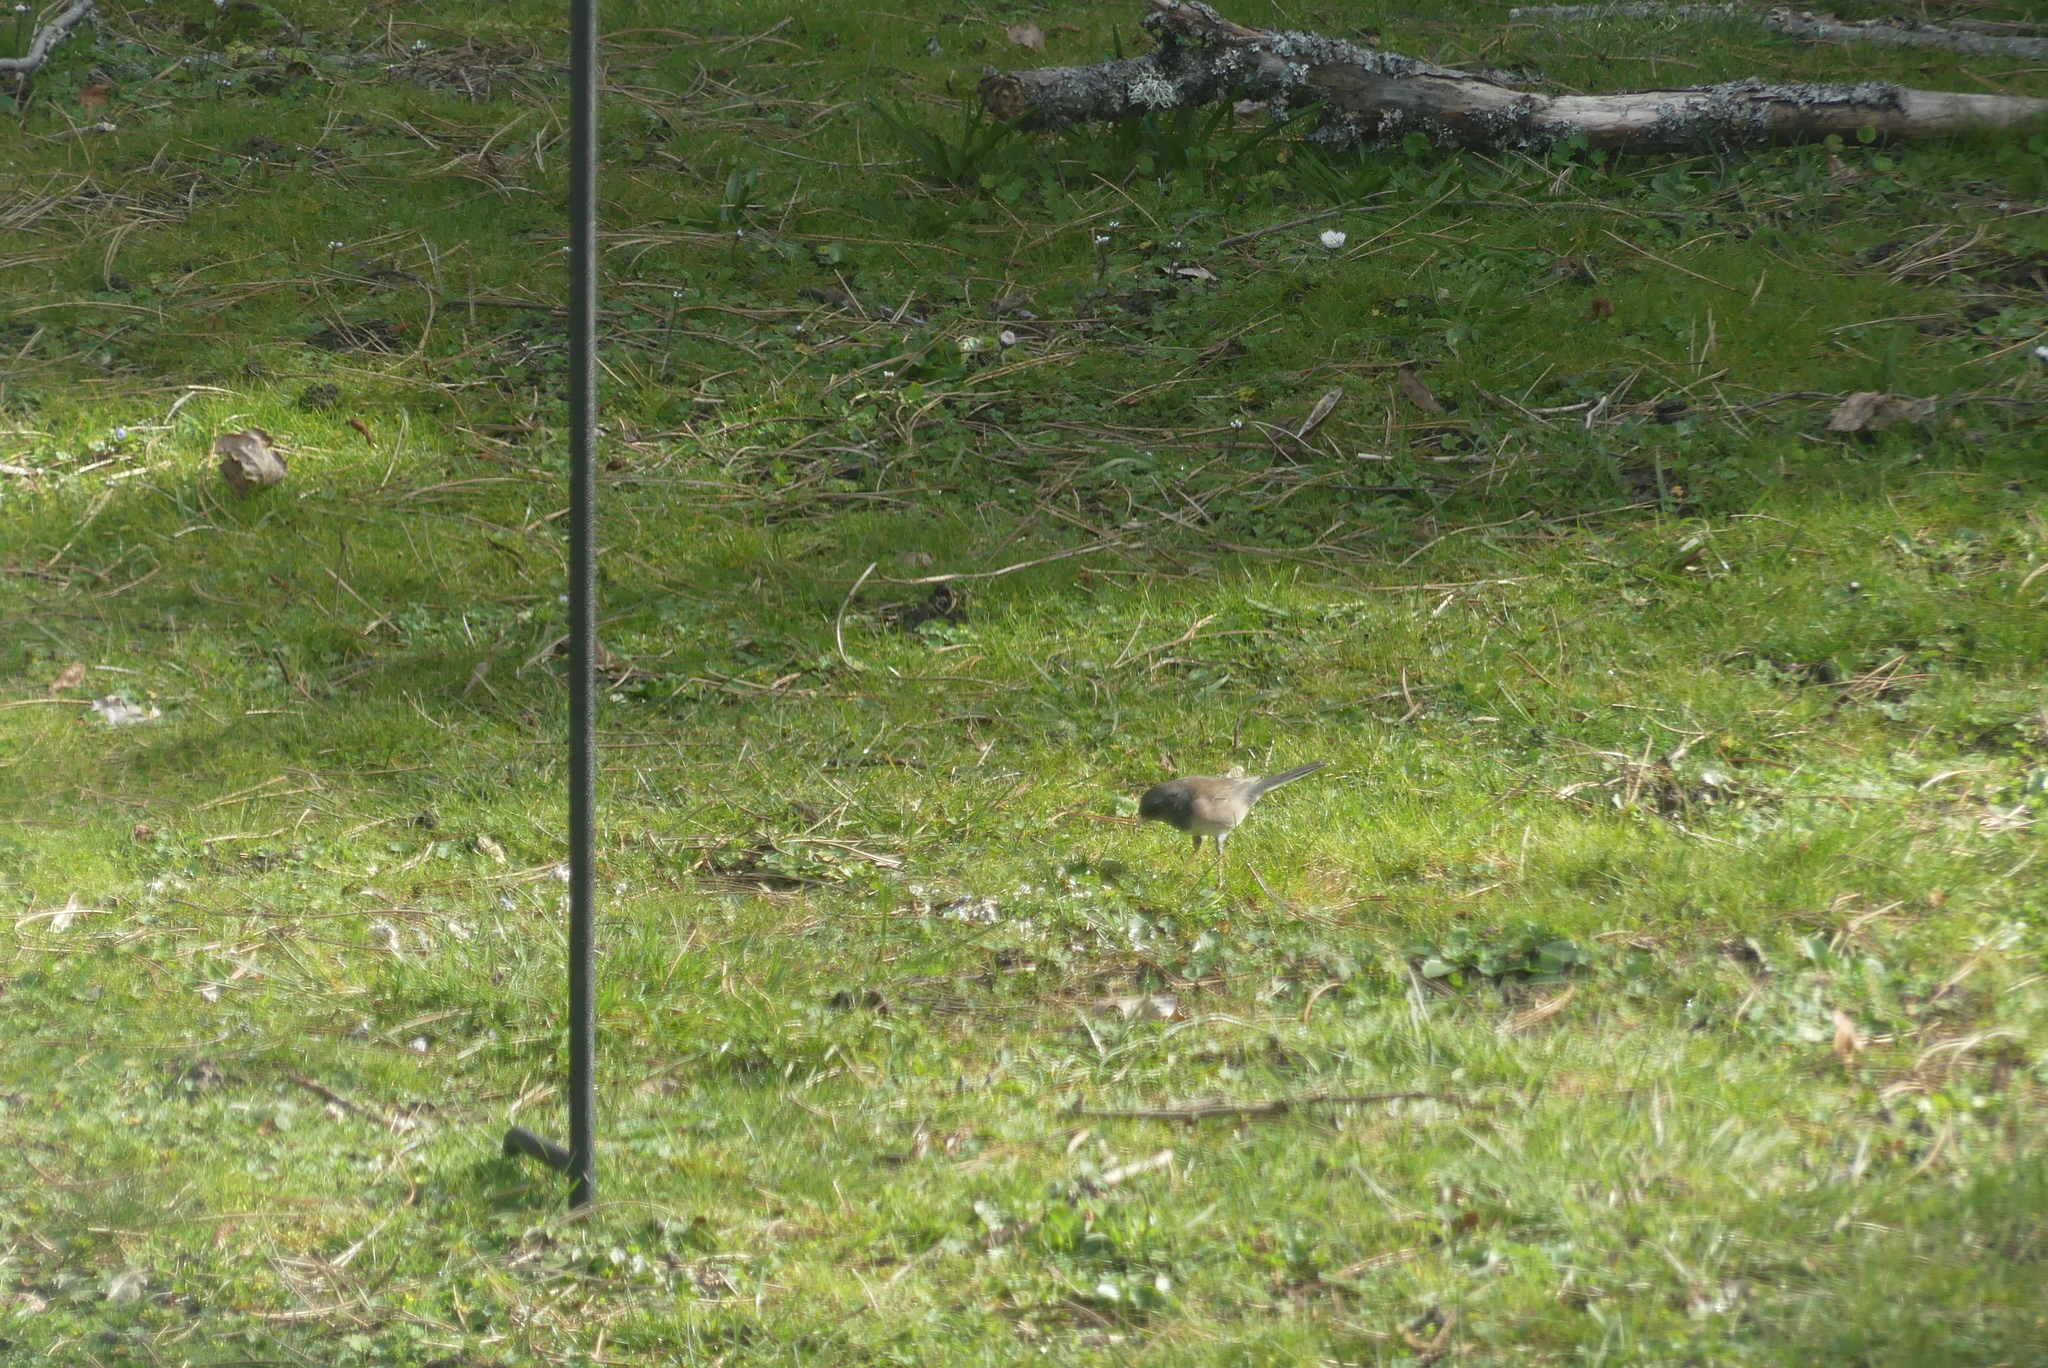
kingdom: Animalia
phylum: Chordata
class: Aves
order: Passeriformes
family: Passerellidae
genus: Junco
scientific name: Junco hyemalis
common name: Dark-eyed junco
